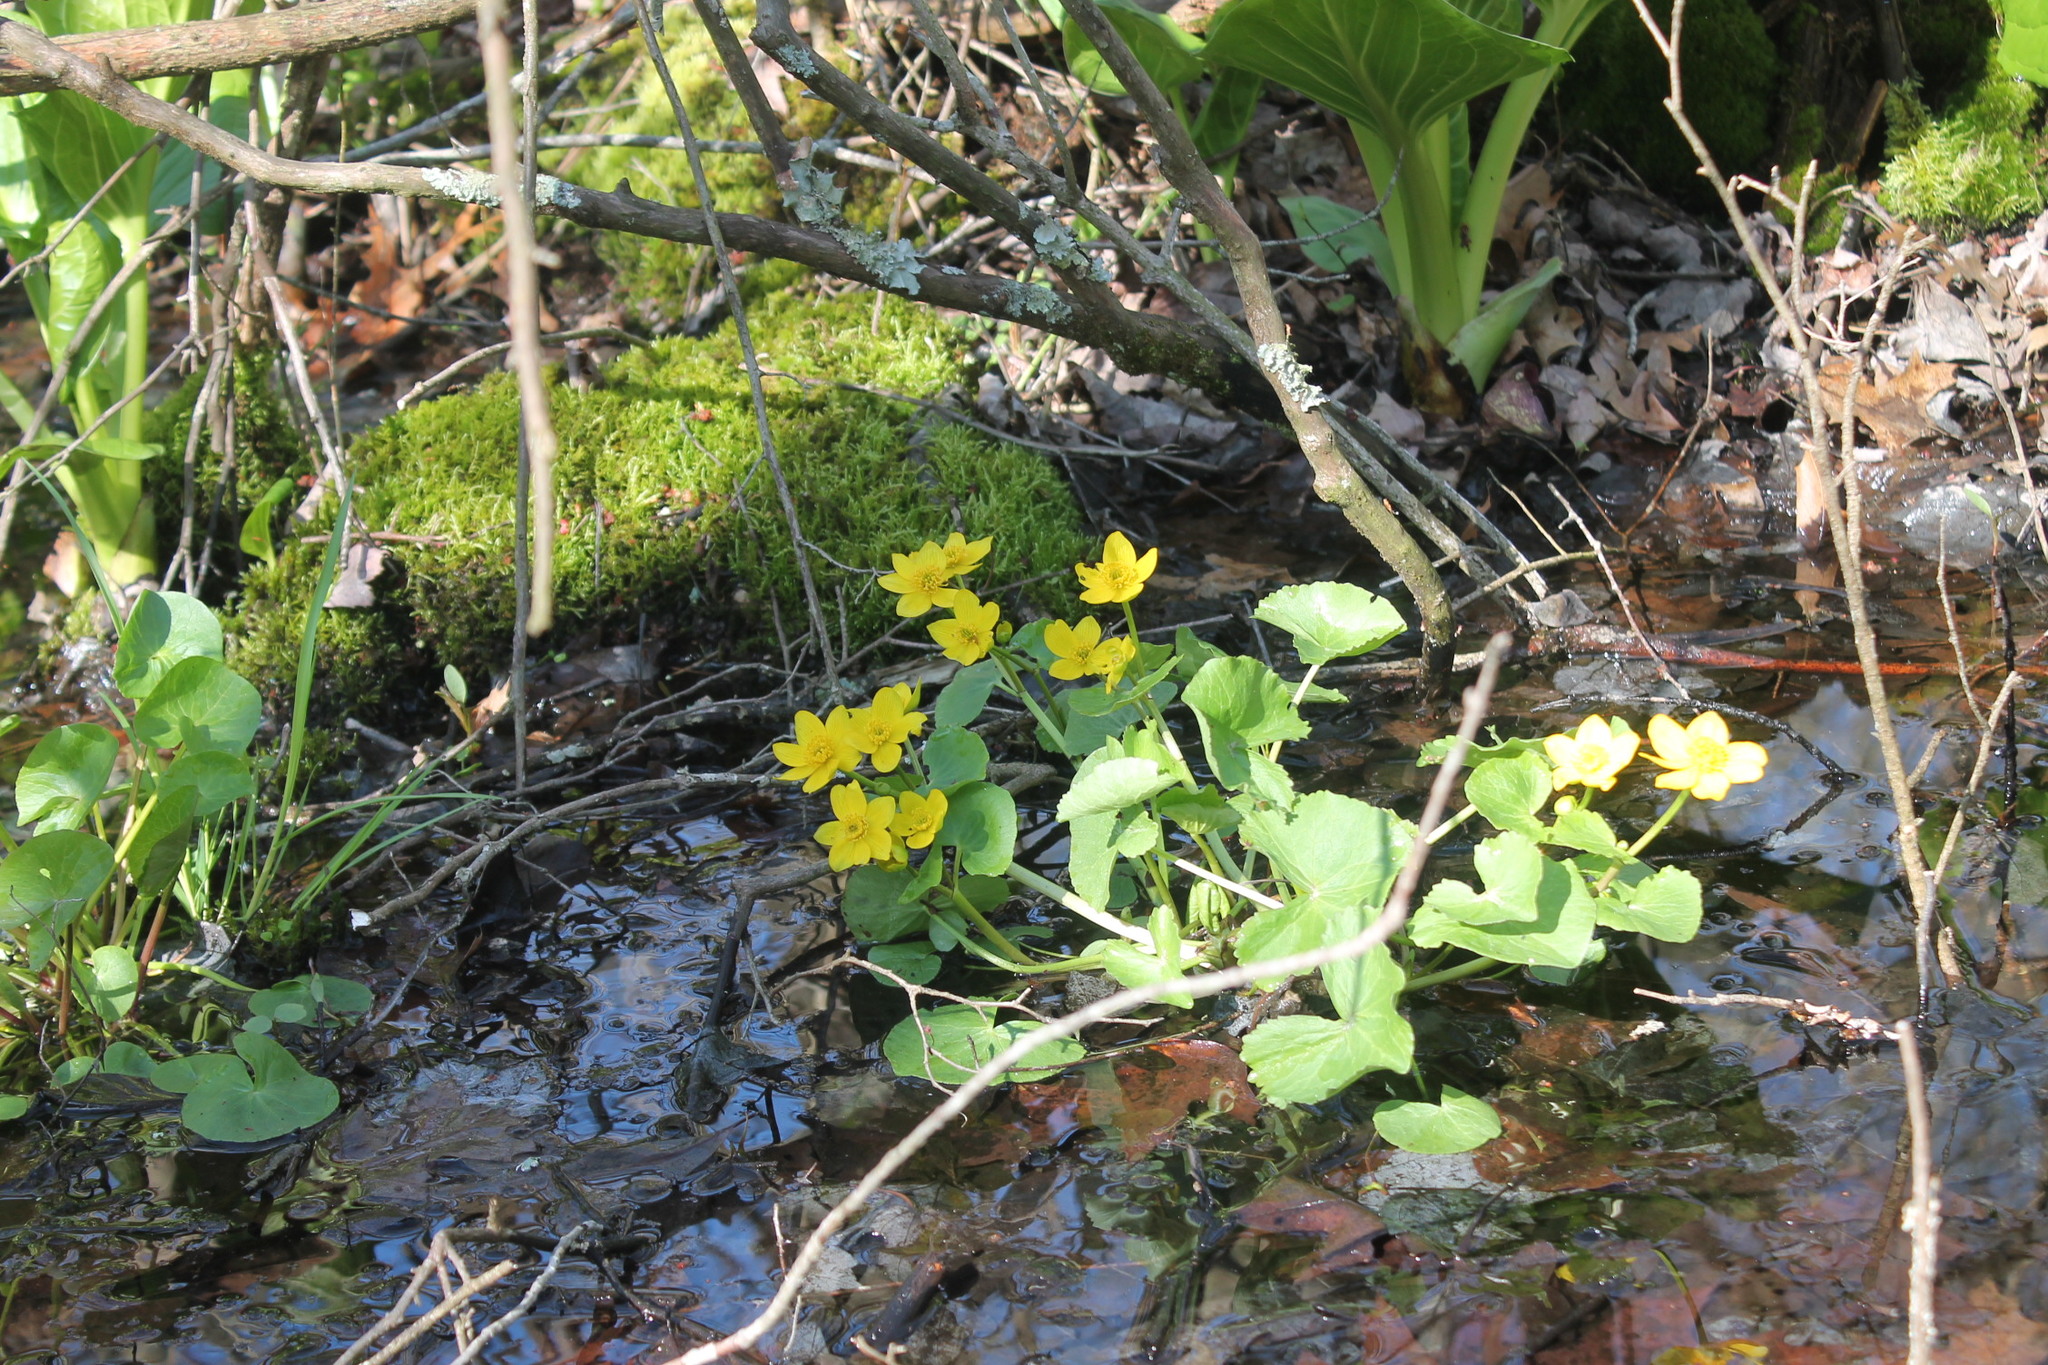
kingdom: Plantae
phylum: Tracheophyta
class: Magnoliopsida
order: Ranunculales
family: Ranunculaceae
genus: Caltha
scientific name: Caltha palustris
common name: Marsh marigold
